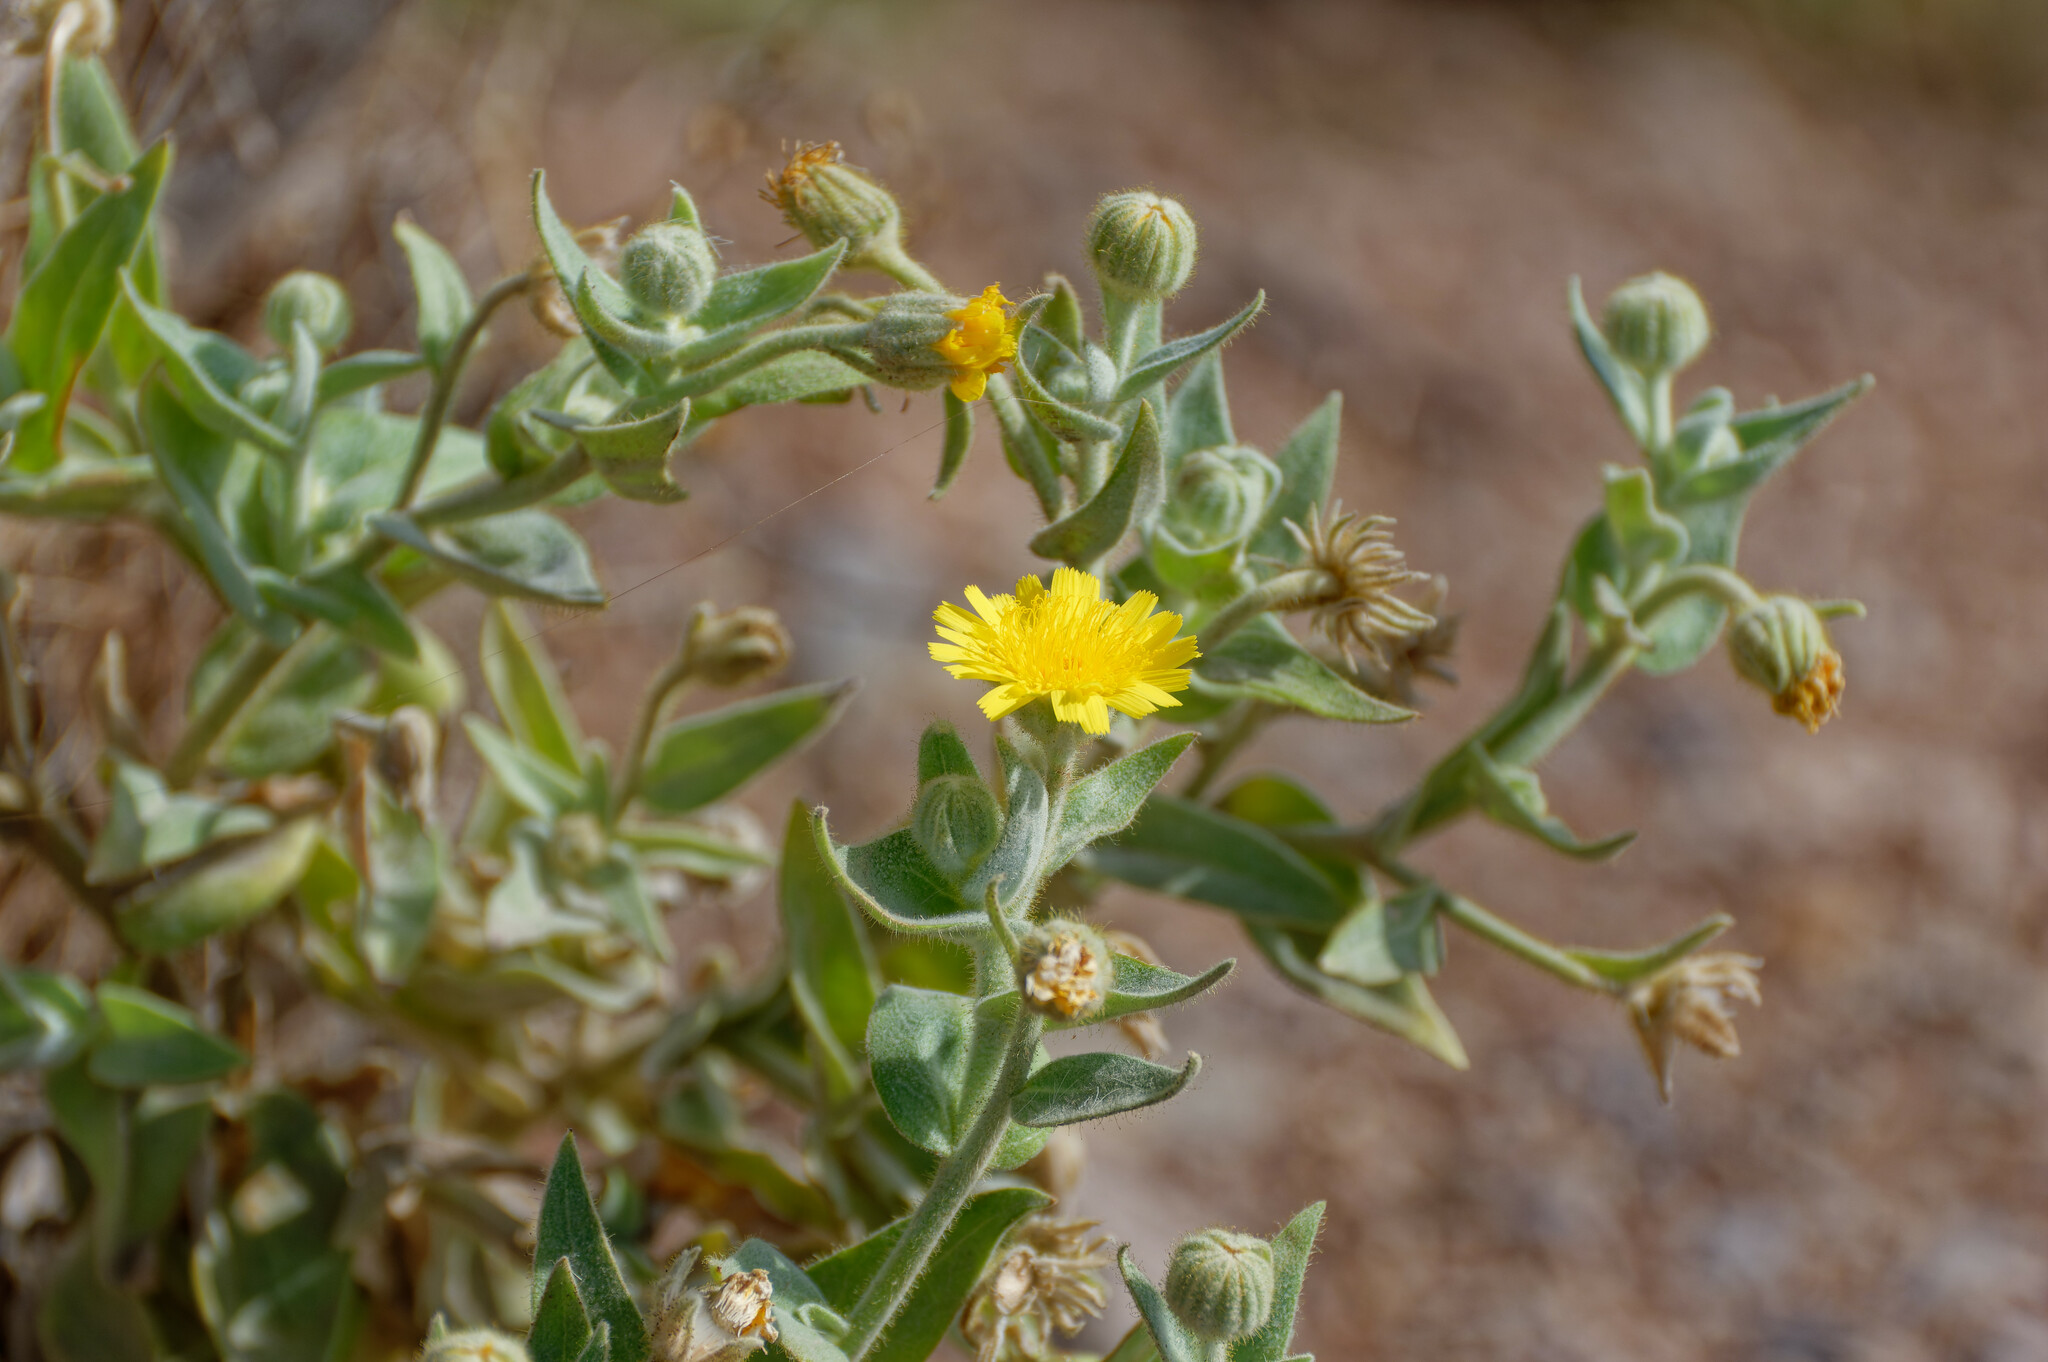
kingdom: Plantae
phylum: Tracheophyta
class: Magnoliopsida
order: Asterales
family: Asteraceae
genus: Andryala
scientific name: Andryala glandulosa
